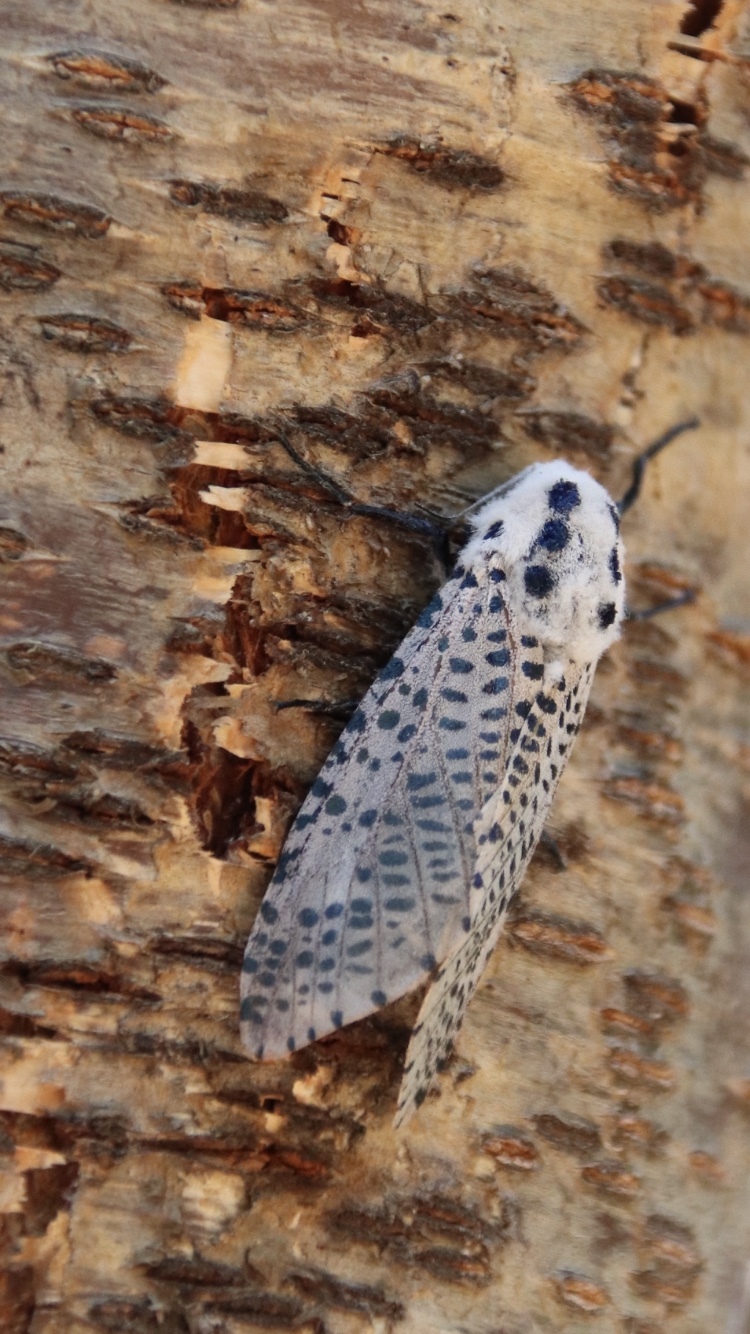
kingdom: Animalia
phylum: Arthropoda
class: Insecta
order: Lepidoptera
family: Cossidae
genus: Zeuzera
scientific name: Zeuzera pyrina
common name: Leopard moth
